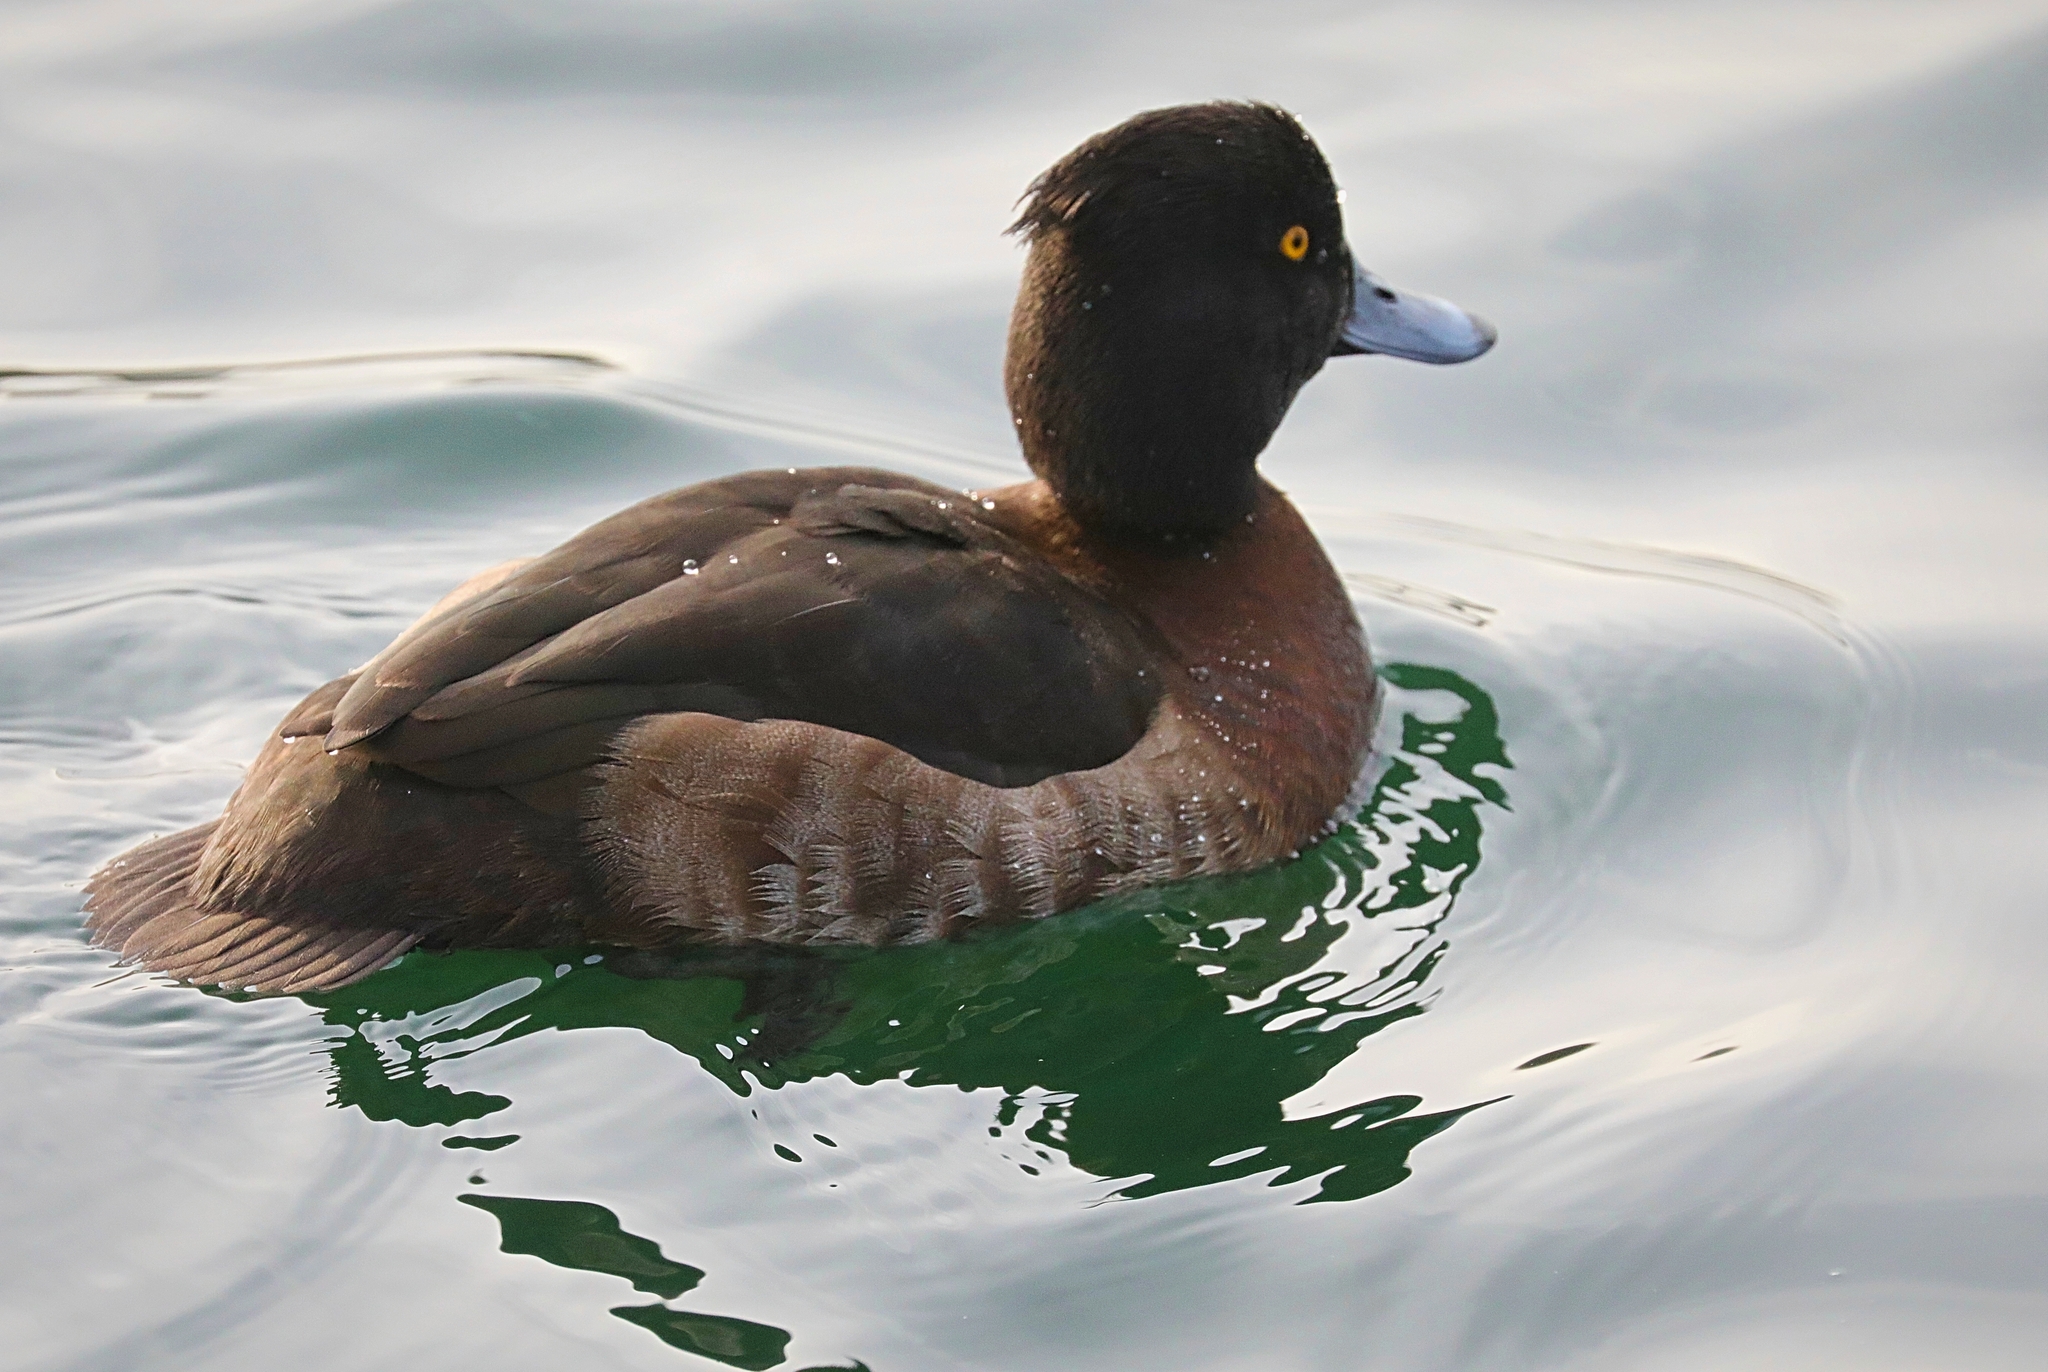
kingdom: Animalia
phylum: Chordata
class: Aves
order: Anseriformes
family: Anatidae
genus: Aythya
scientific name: Aythya fuligula
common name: Tufted duck
